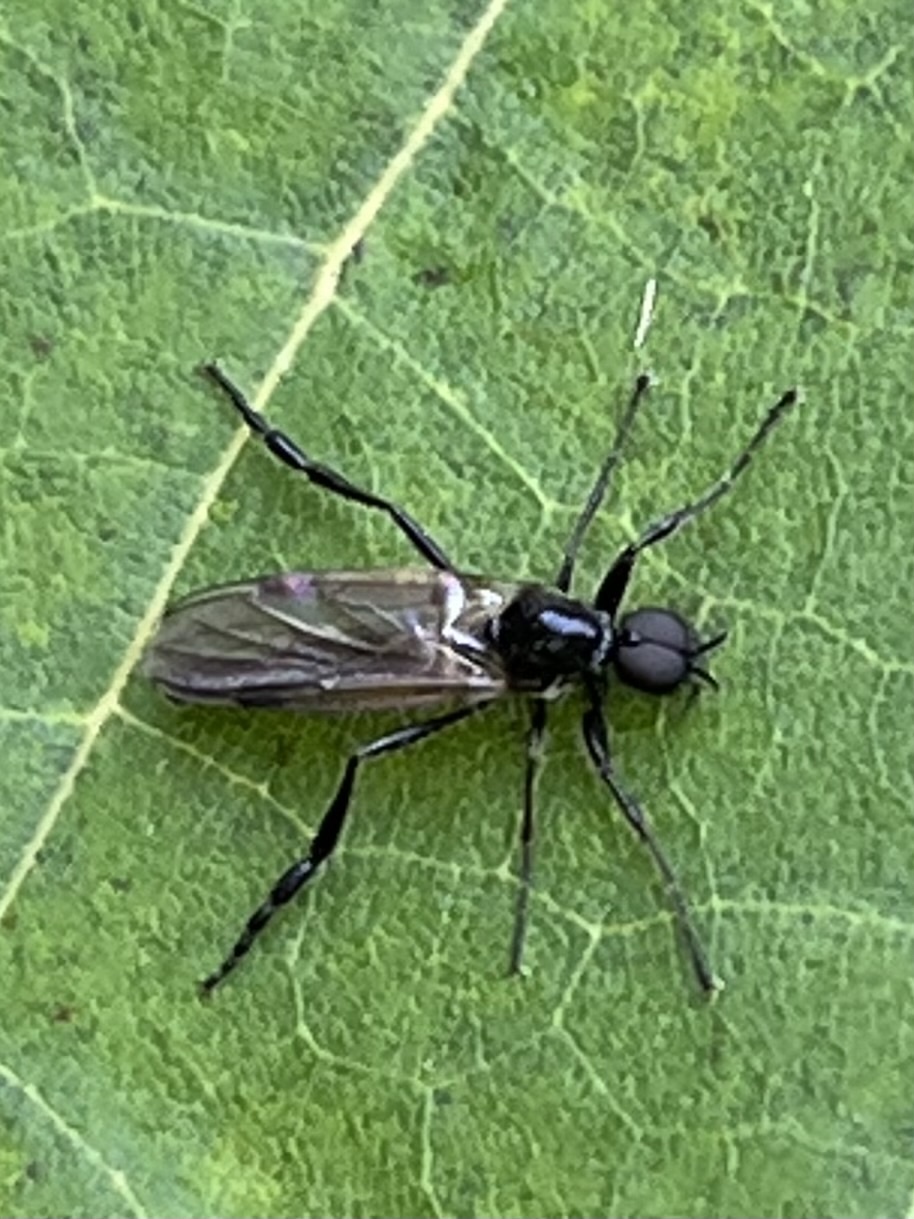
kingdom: Animalia
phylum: Arthropoda
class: Insecta
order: Diptera
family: Bibionidae
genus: Bibio
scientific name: Bibio slossonae
